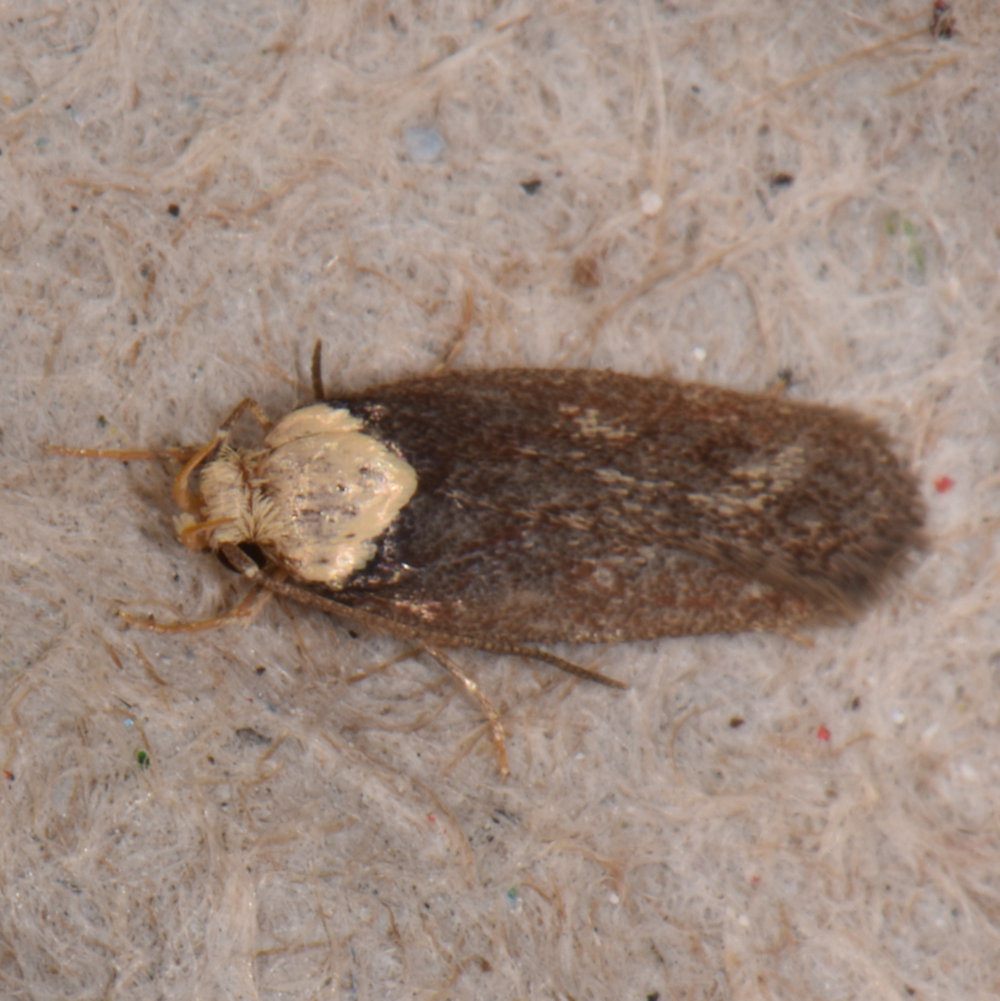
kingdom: Animalia
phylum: Arthropoda
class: Insecta
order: Lepidoptera
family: Depressariidae
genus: Depressaria
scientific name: Depressaria depressana
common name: Lost flat-body
